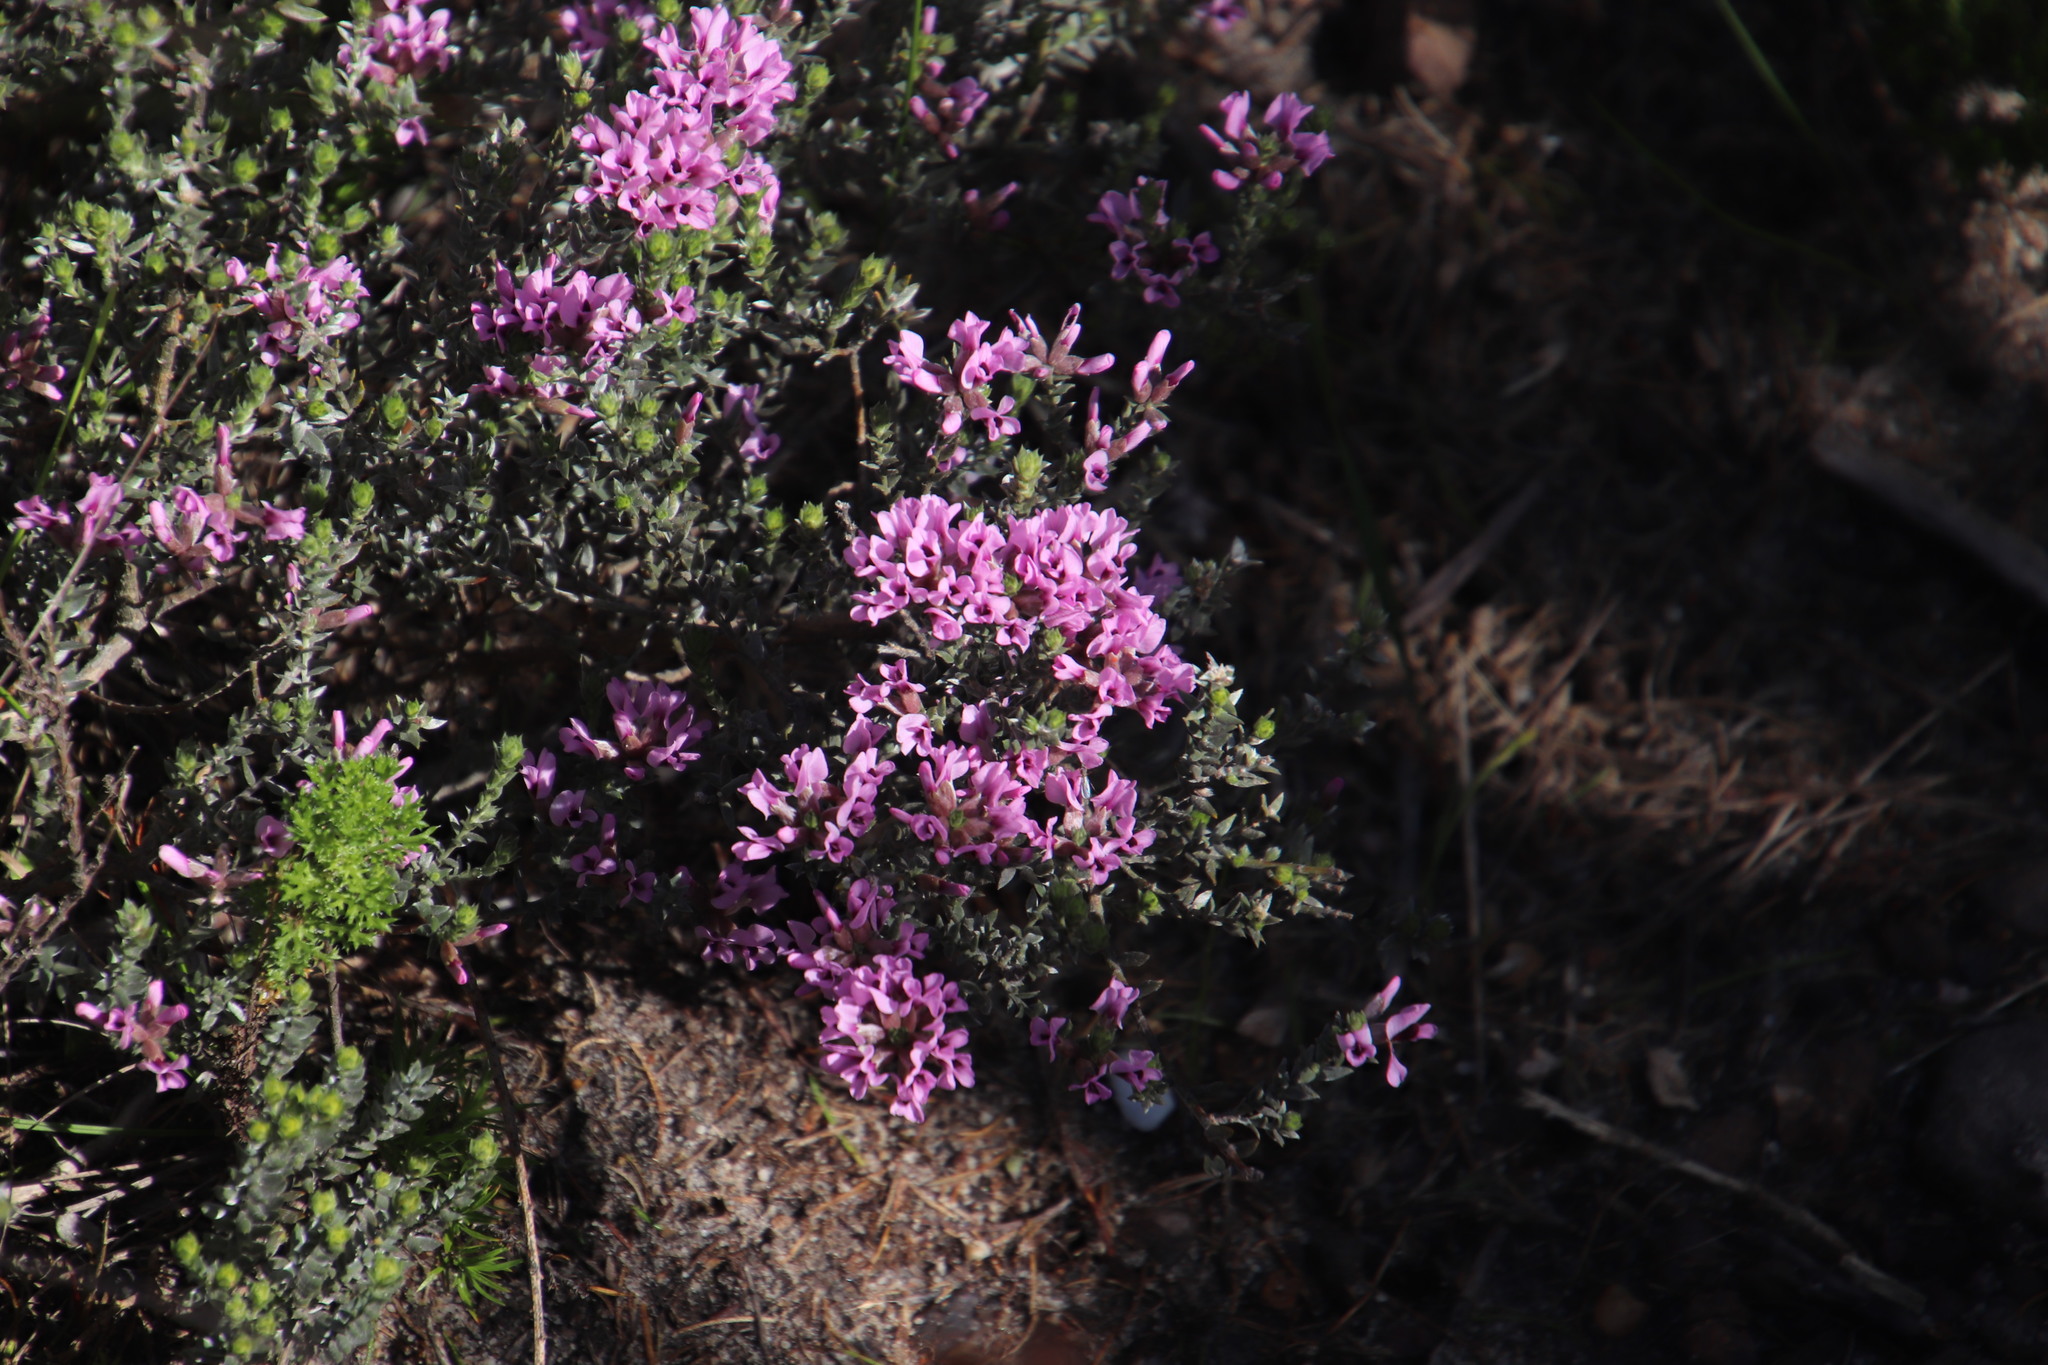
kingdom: Plantae
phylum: Tracheophyta
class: Magnoliopsida
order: Fabales
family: Fabaceae
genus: Amphithalea
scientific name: Amphithalea ericifolia
